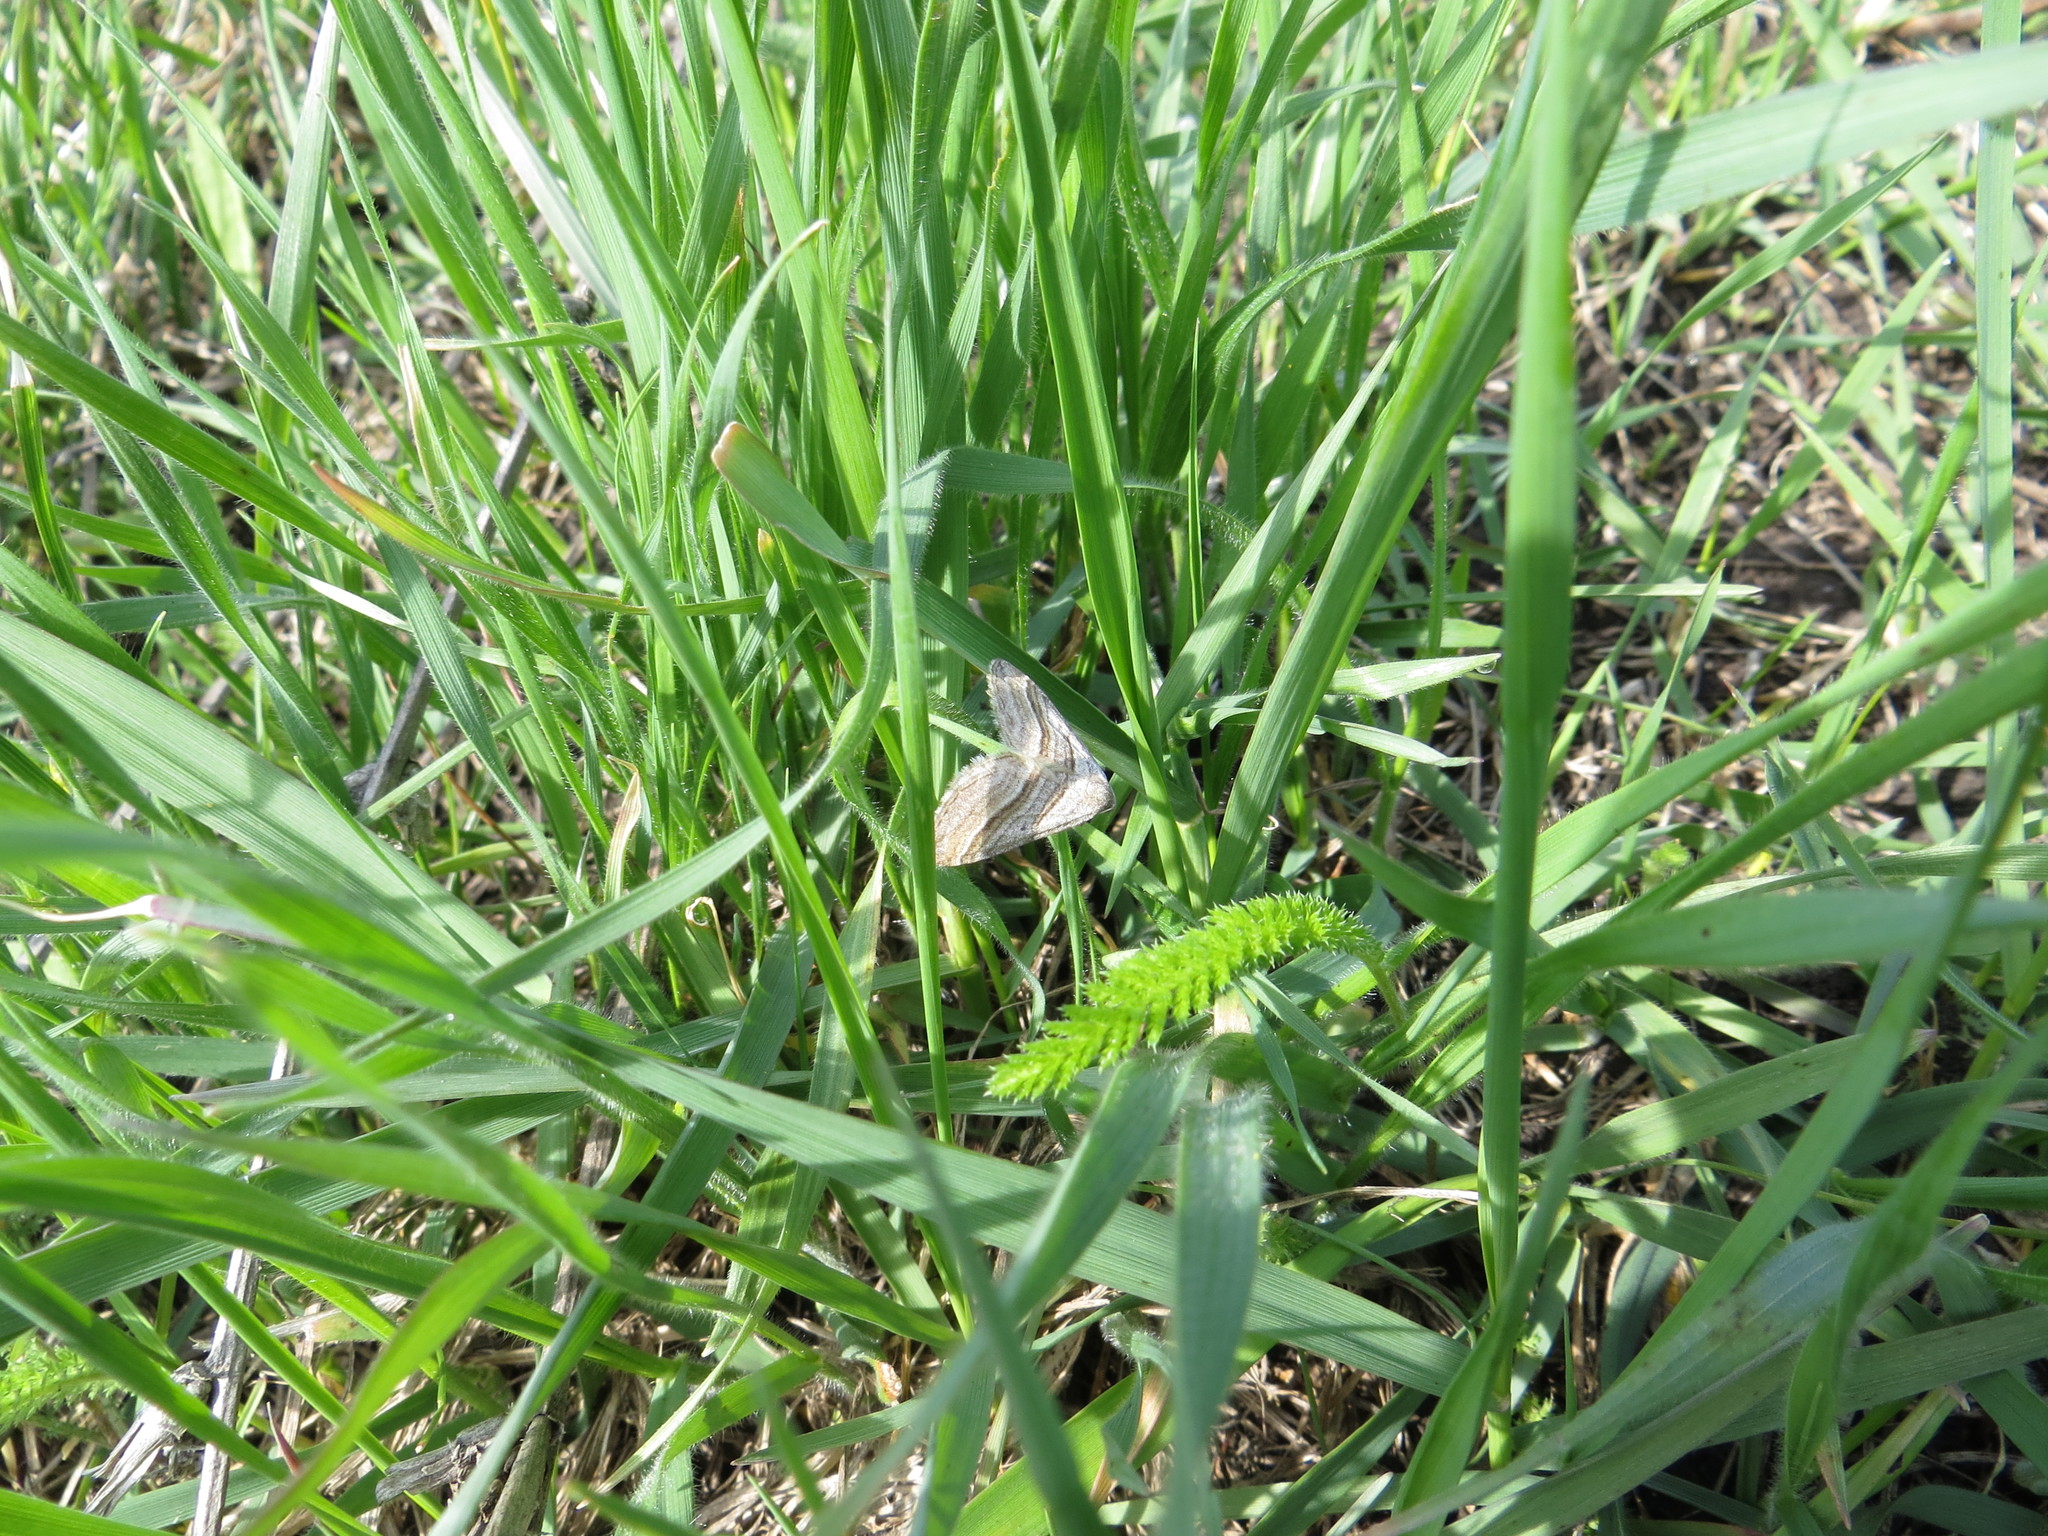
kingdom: Animalia
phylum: Arthropoda
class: Insecta
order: Lepidoptera
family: Geometridae
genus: Phibalapteryx
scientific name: Phibalapteryx virgata
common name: Oblique striped
